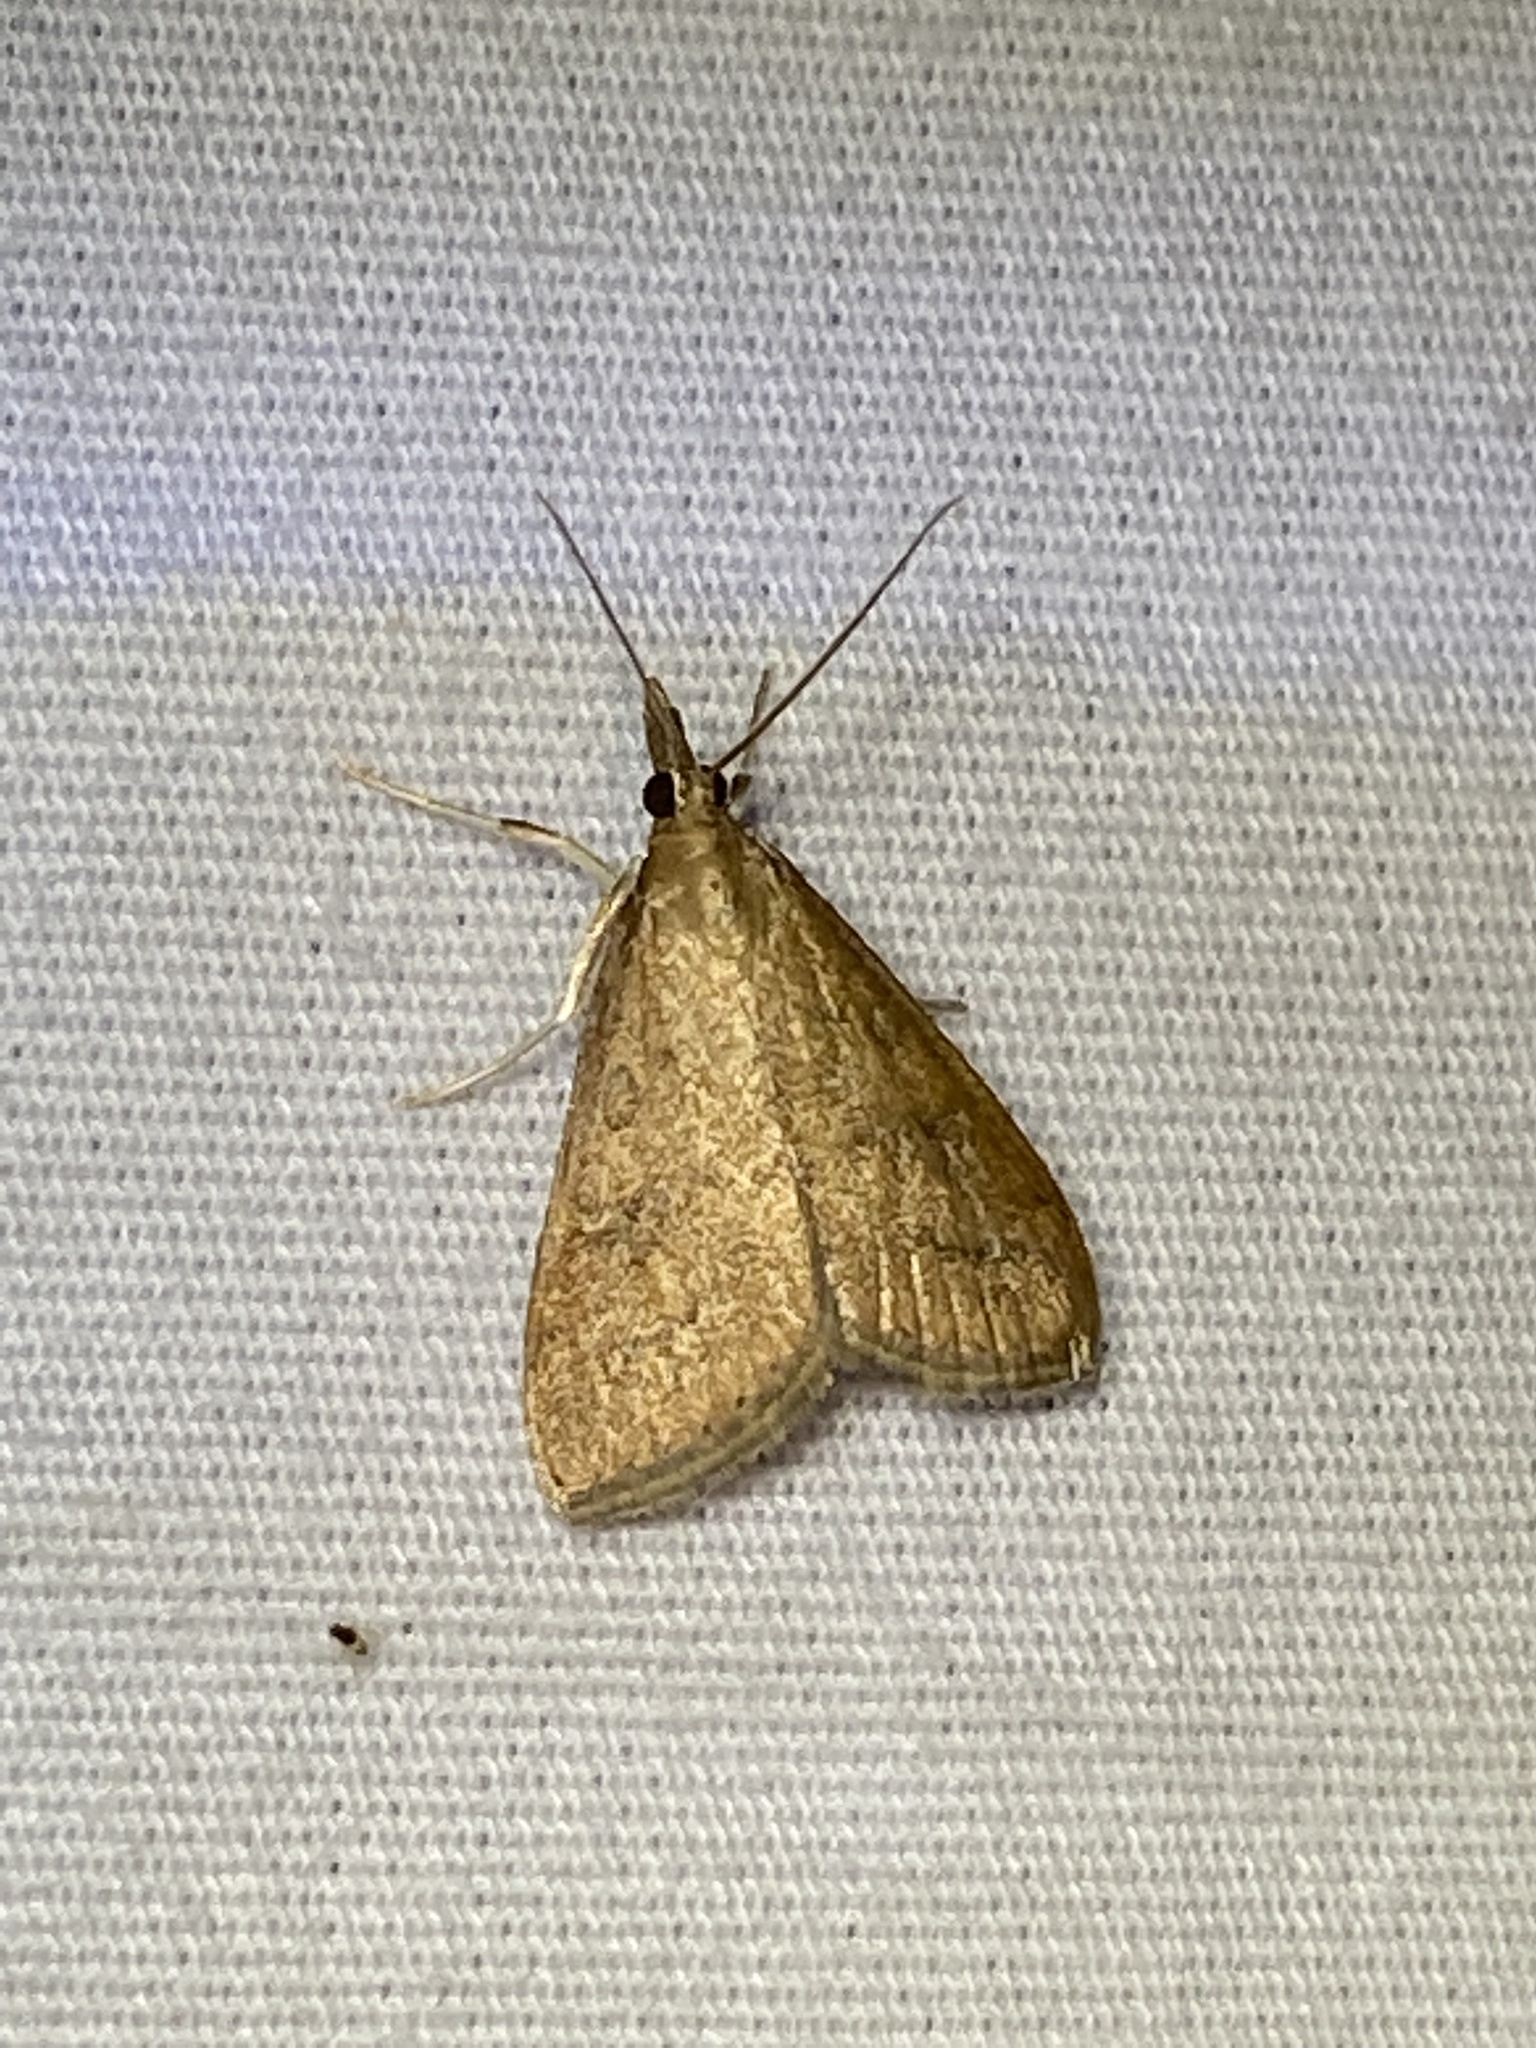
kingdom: Animalia
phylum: Arthropoda
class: Insecta
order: Lepidoptera
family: Crambidae
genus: Udea
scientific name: Udea rubigalis
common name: Celery leaftier moth
